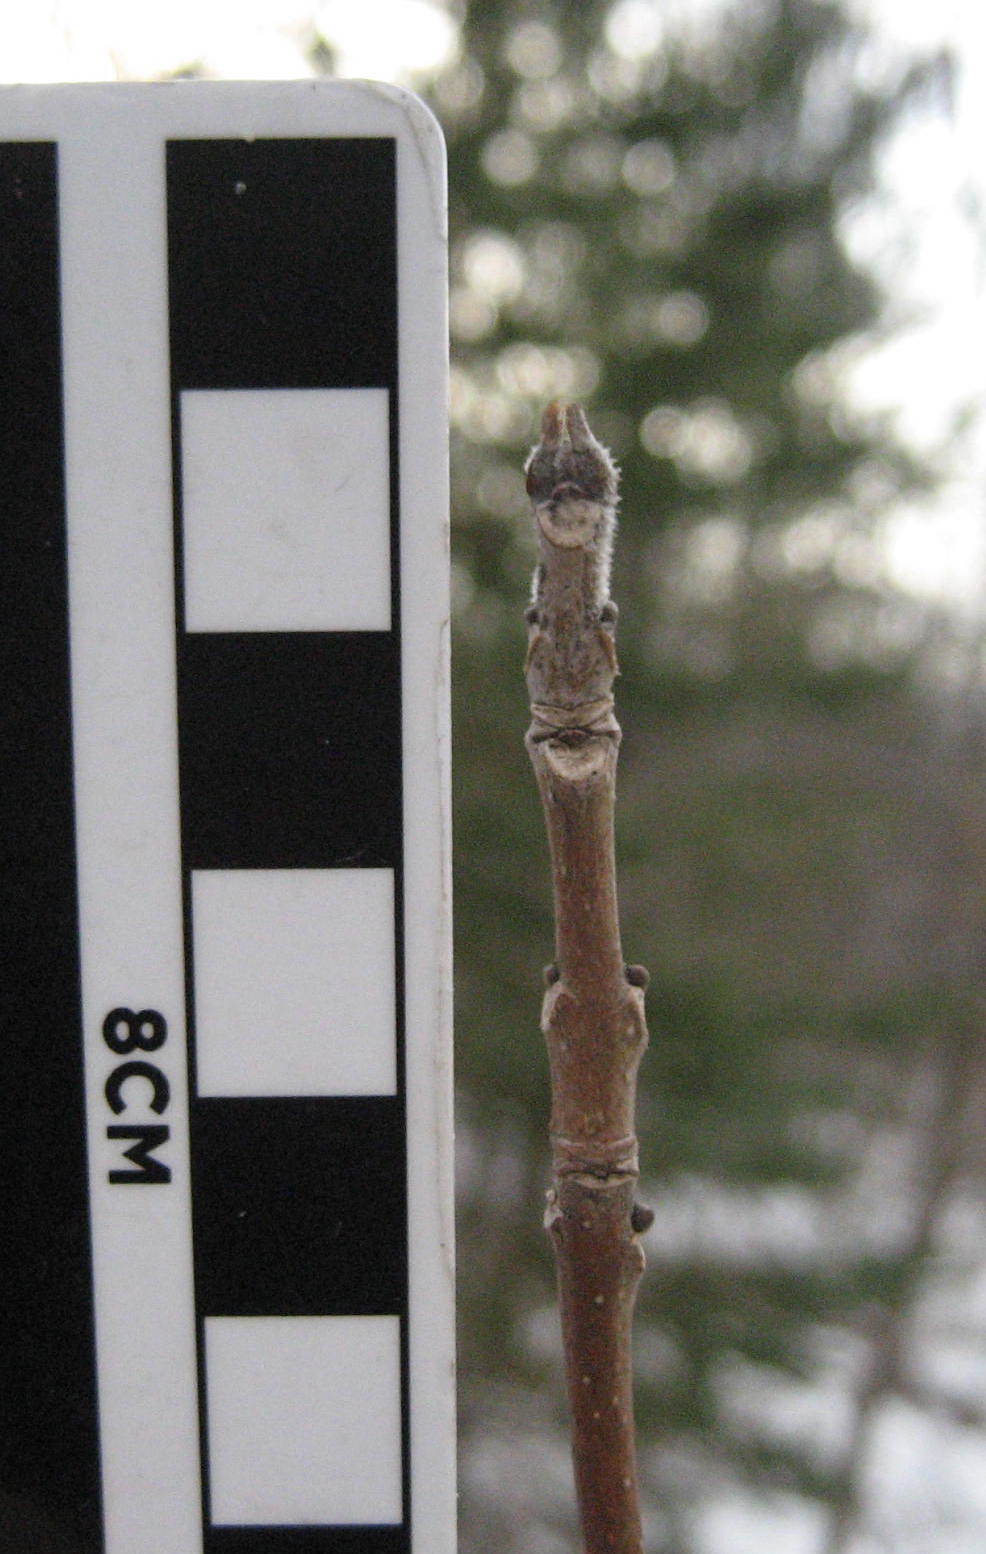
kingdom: Plantae
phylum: Tracheophyta
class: Magnoliopsida
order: Lamiales
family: Oleaceae
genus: Fraxinus
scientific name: Fraxinus pennsylvanica
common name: Green ash
